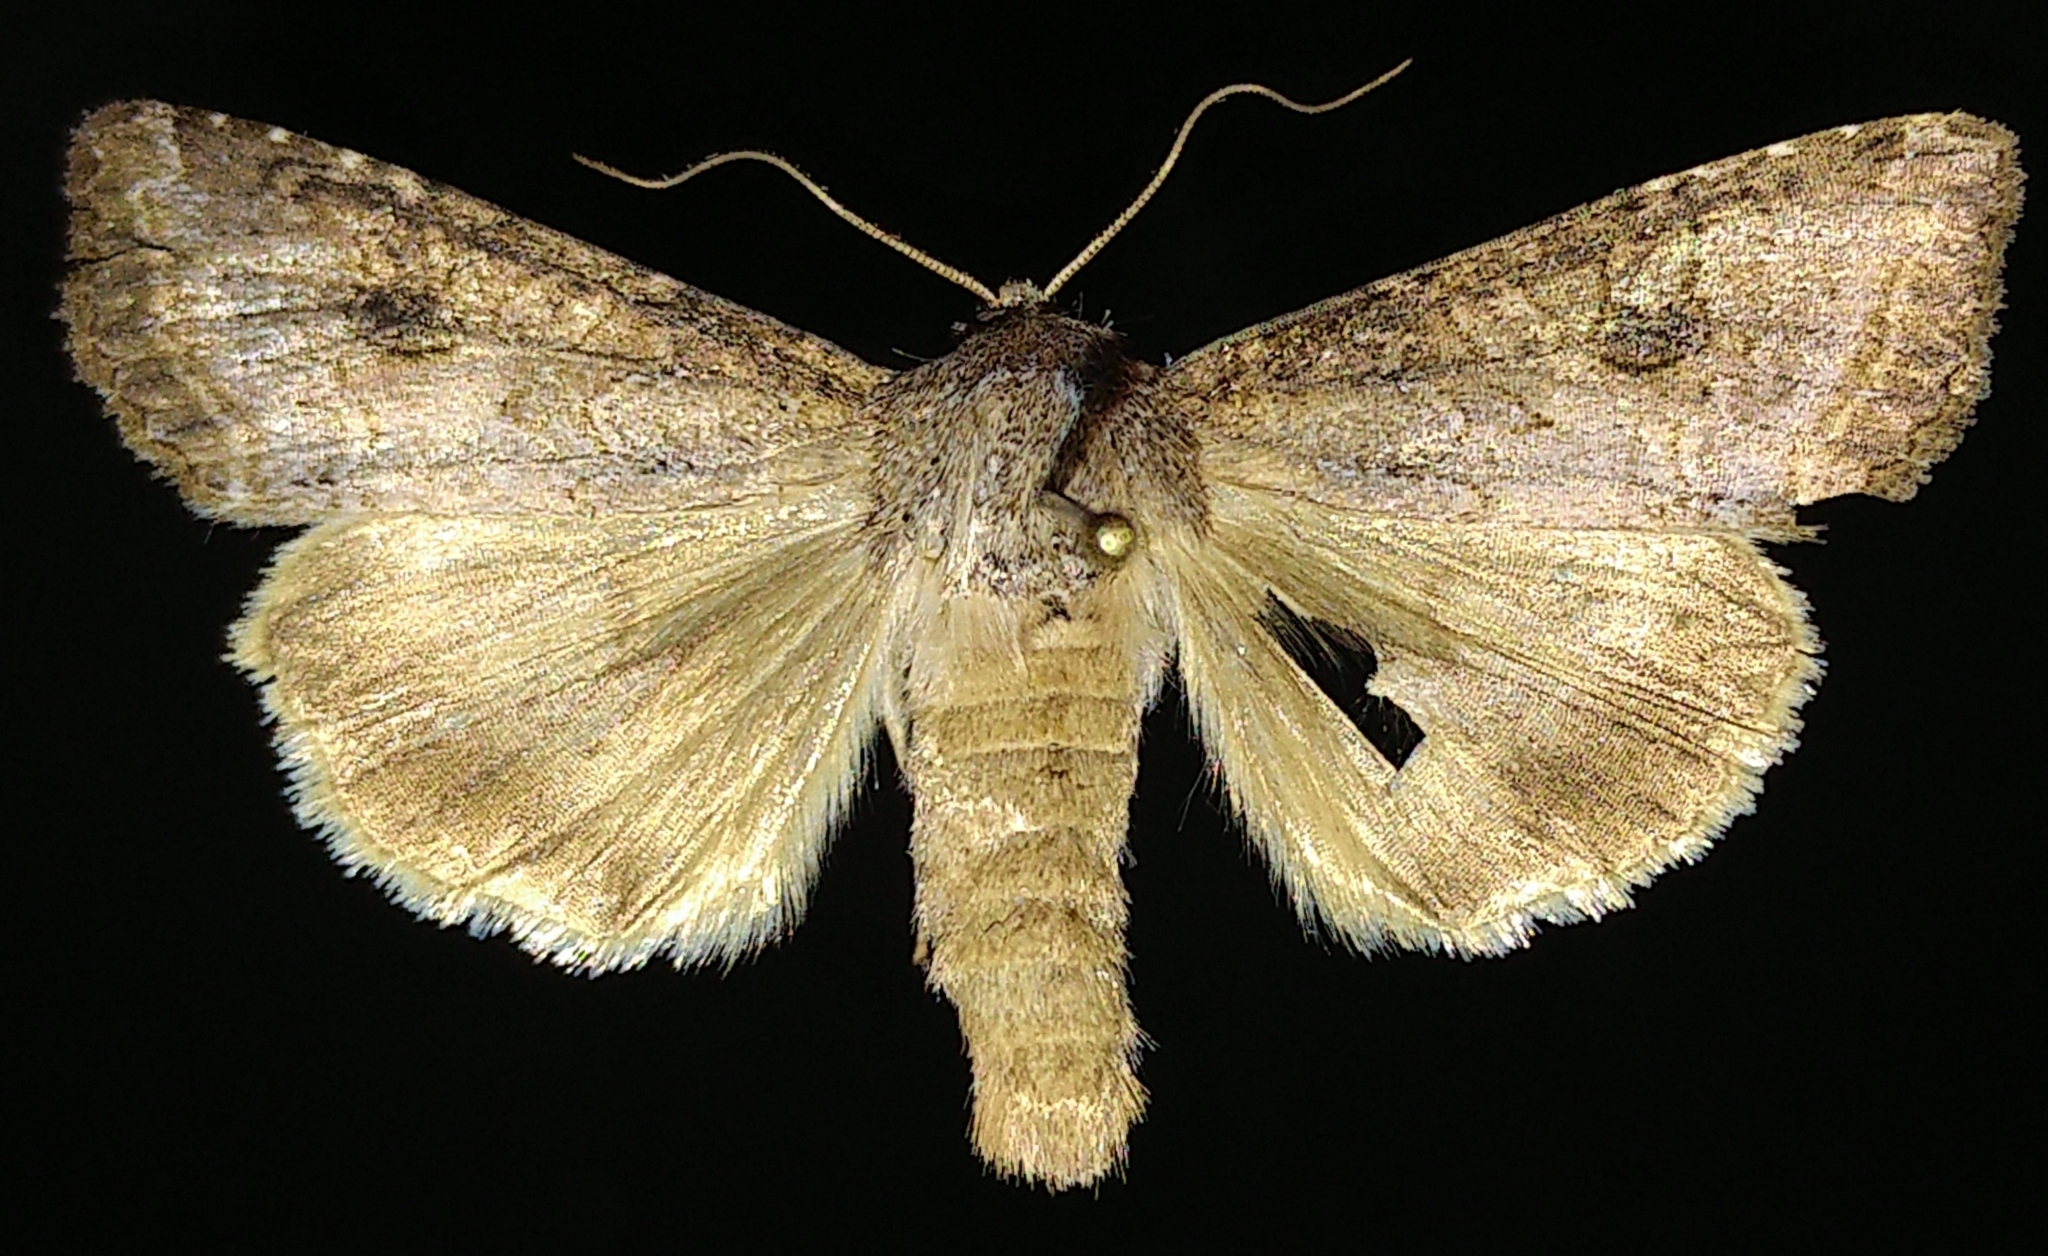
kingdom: Animalia
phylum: Arthropoda
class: Insecta
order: Lepidoptera
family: Noctuidae
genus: Trichordestra
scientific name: Trichordestra lilacina
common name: Aster cutworm
